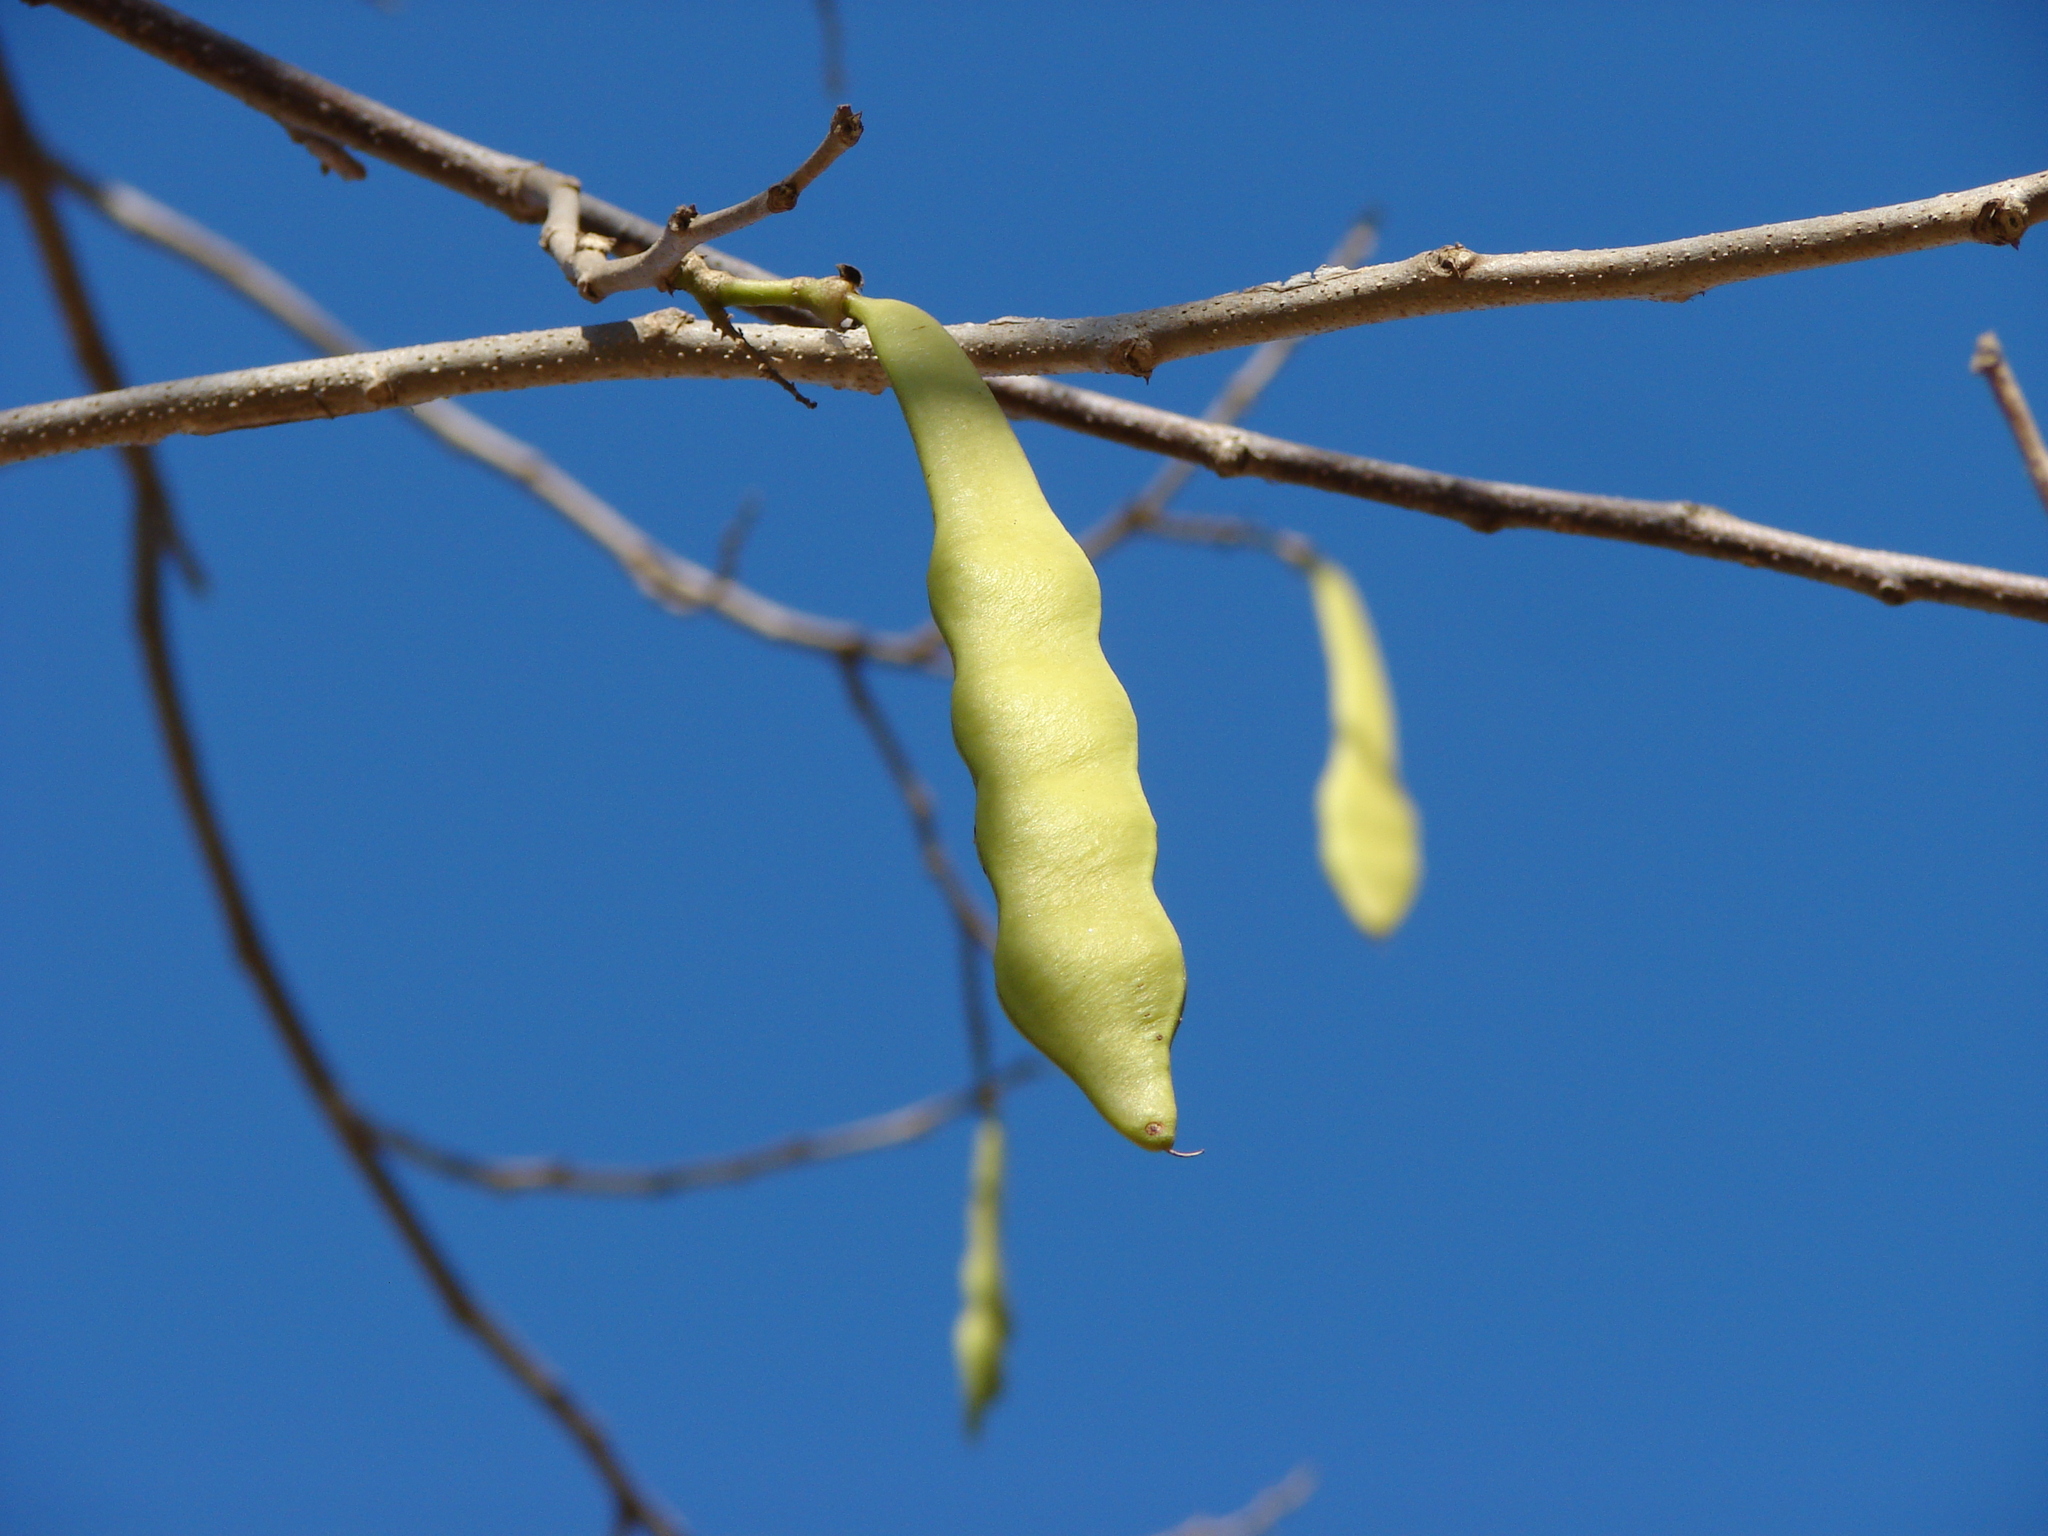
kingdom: Plantae
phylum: Tracheophyta
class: Magnoliopsida
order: Fabales
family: Fabaceae
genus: Gliricidia
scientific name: Gliricidia sepium
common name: Quickstick
